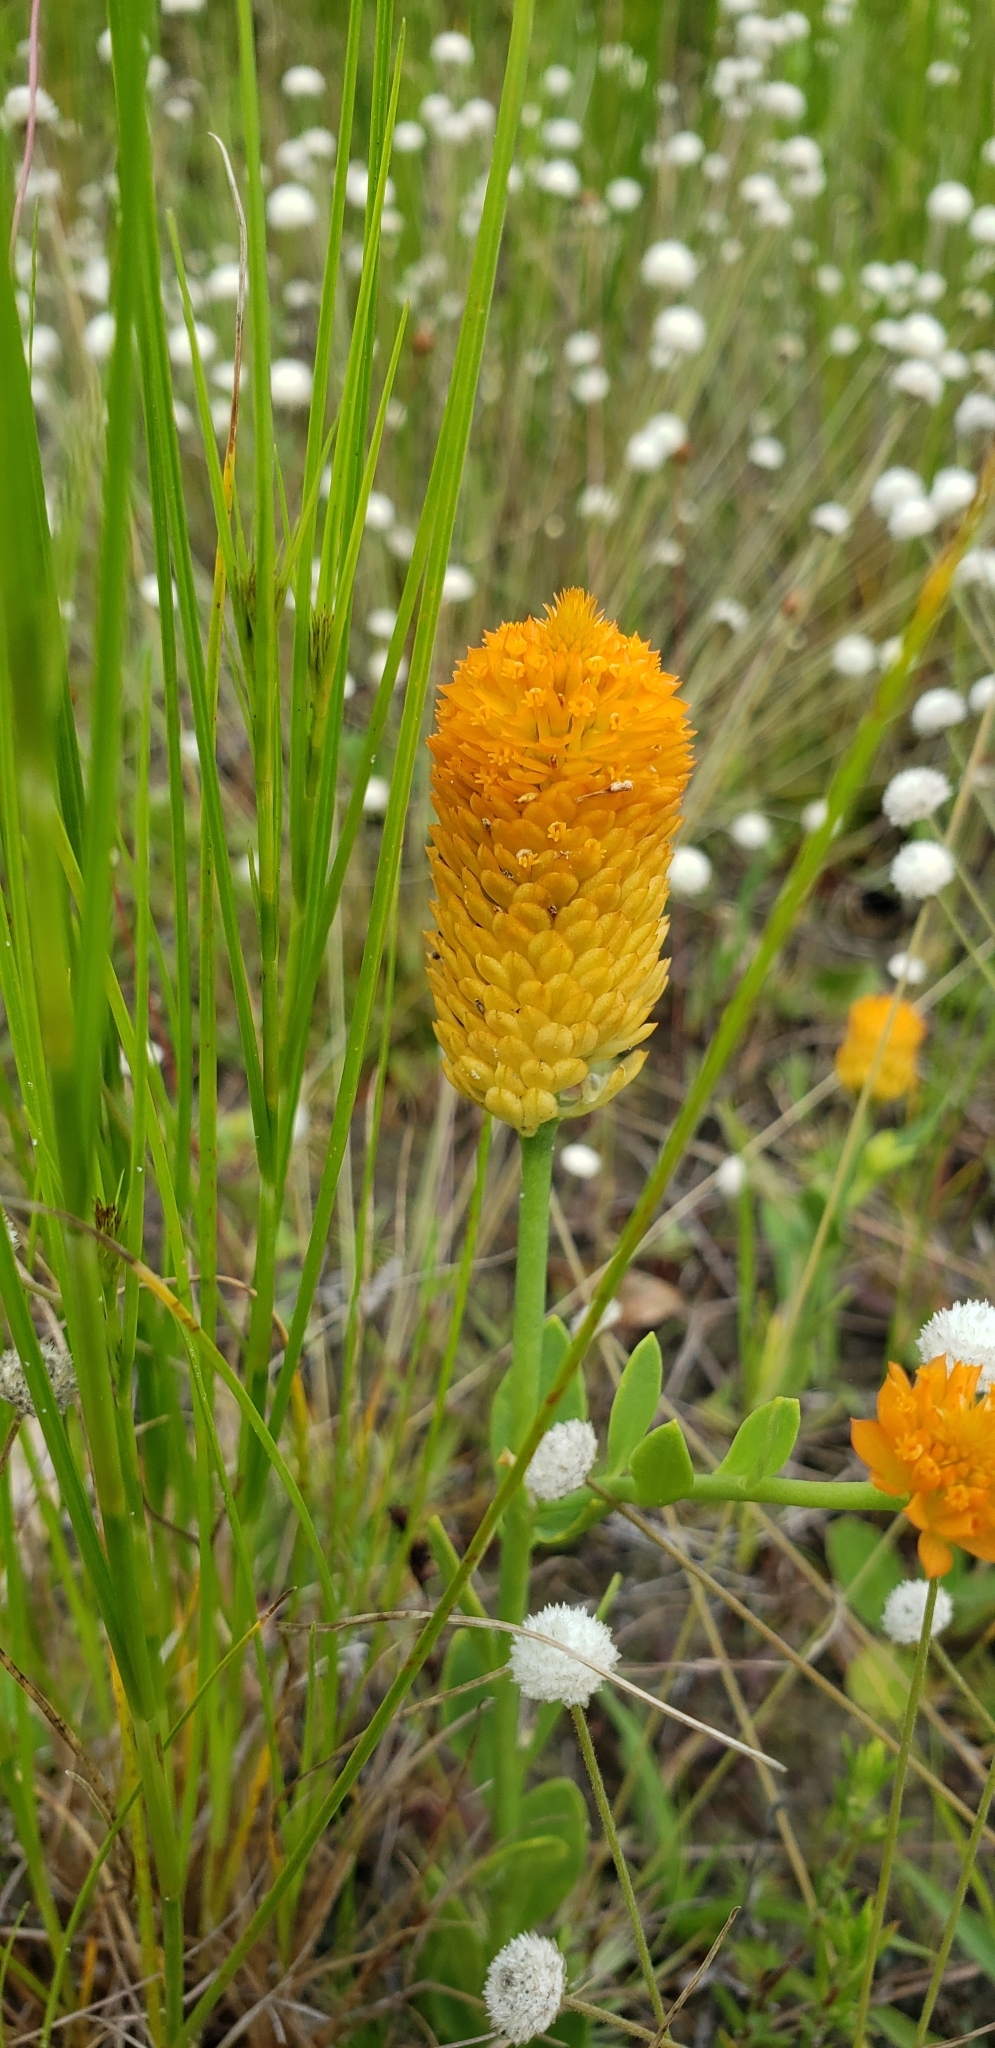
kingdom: Plantae
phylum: Tracheophyta
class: Magnoliopsida
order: Fabales
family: Polygalaceae
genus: Polygala
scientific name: Polygala lutea
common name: Orange milkwort
